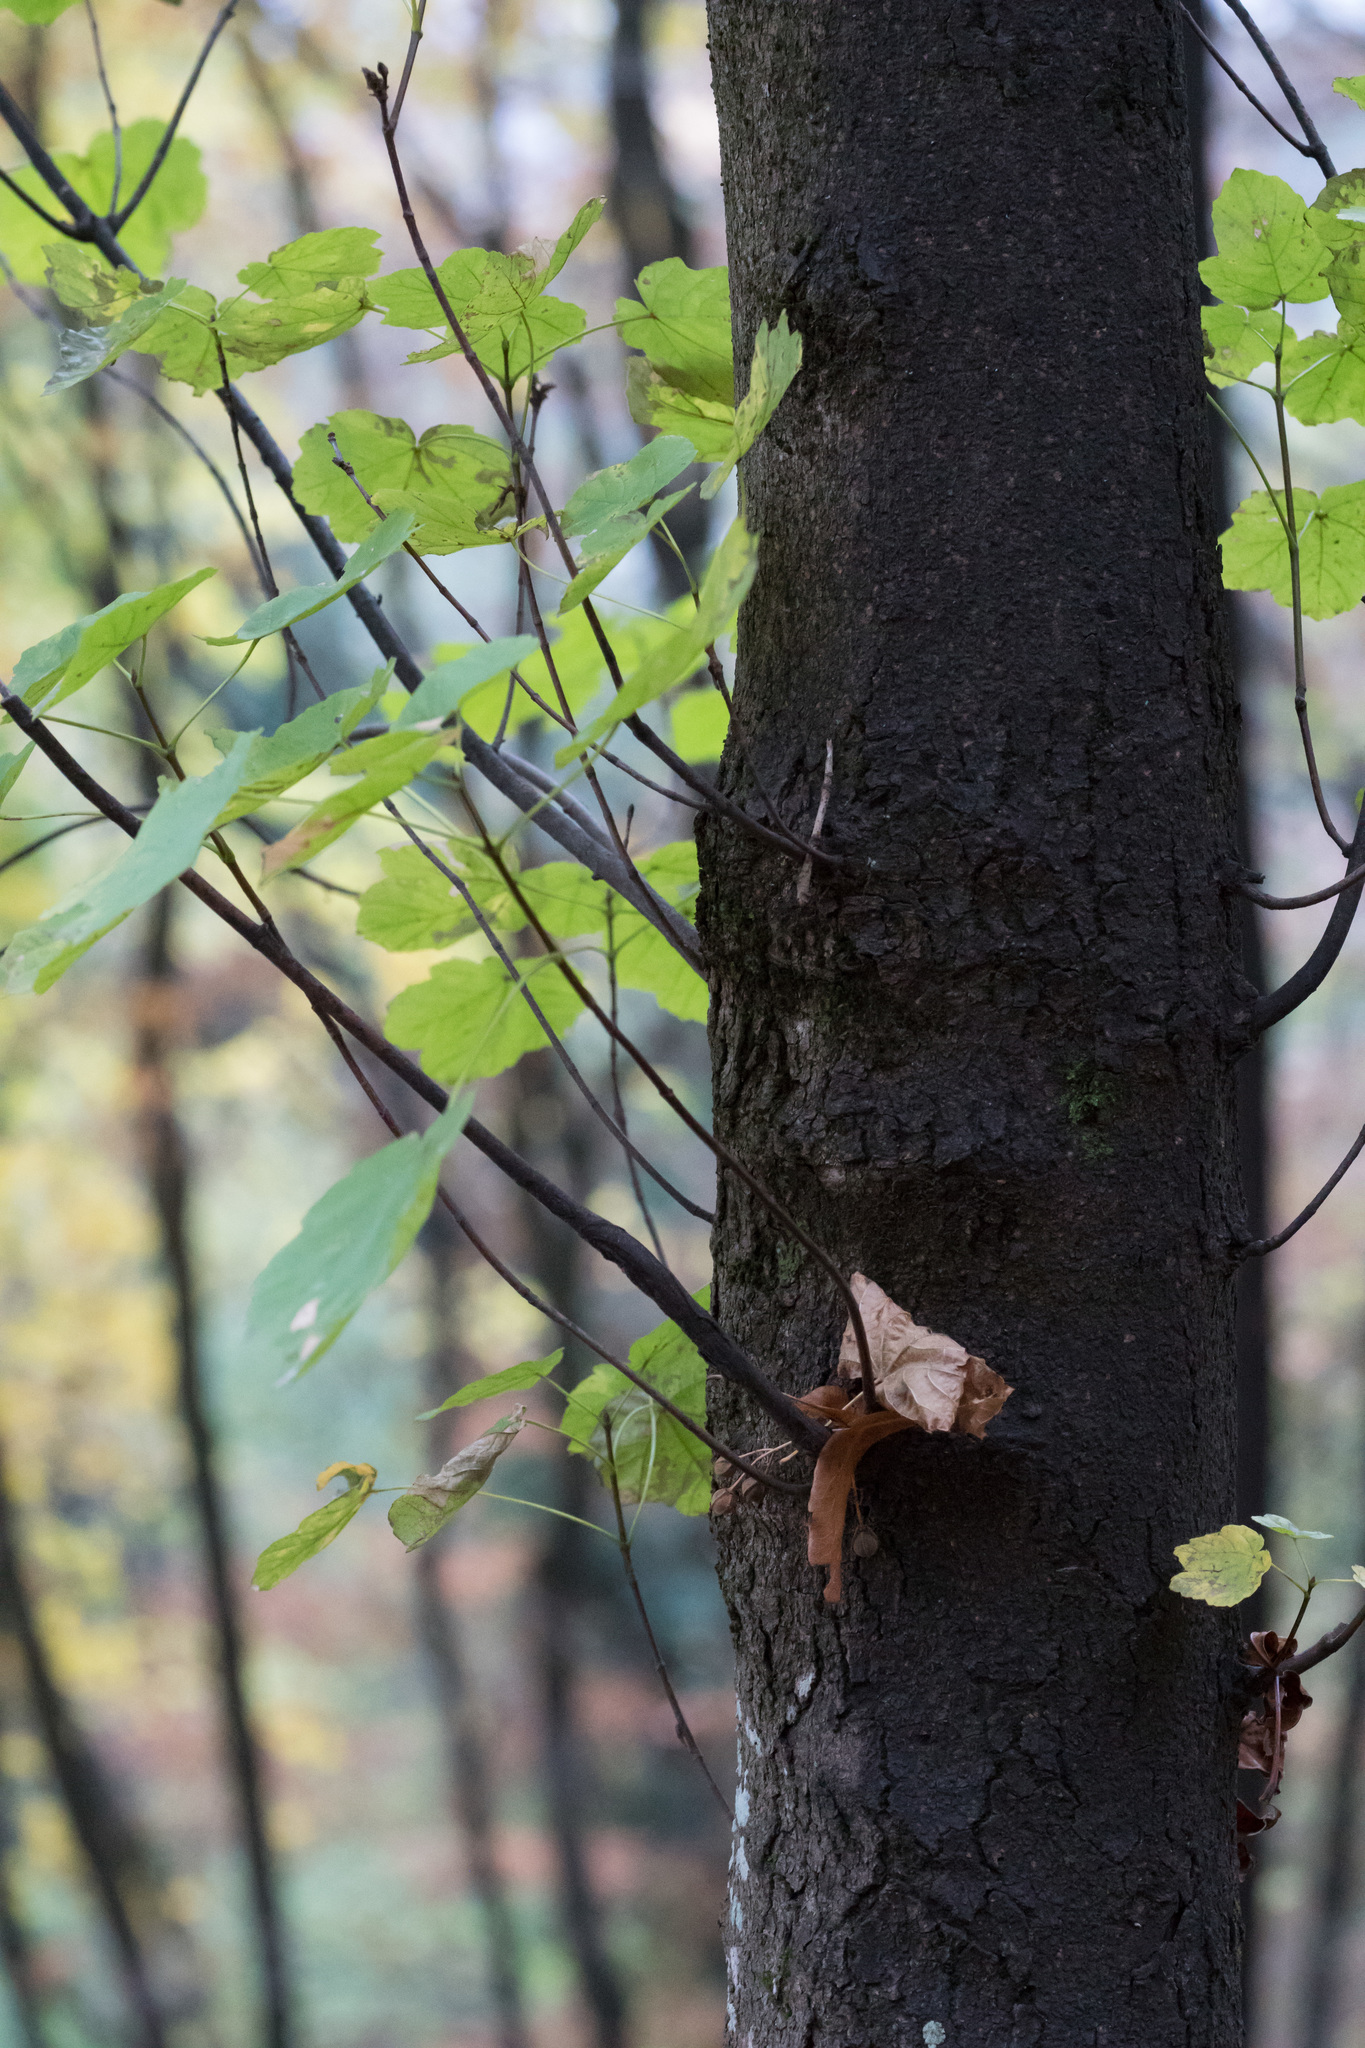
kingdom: Plantae
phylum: Tracheophyta
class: Magnoliopsida
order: Sapindales
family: Sapindaceae
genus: Acer
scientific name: Acer opalus
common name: Italian maple
